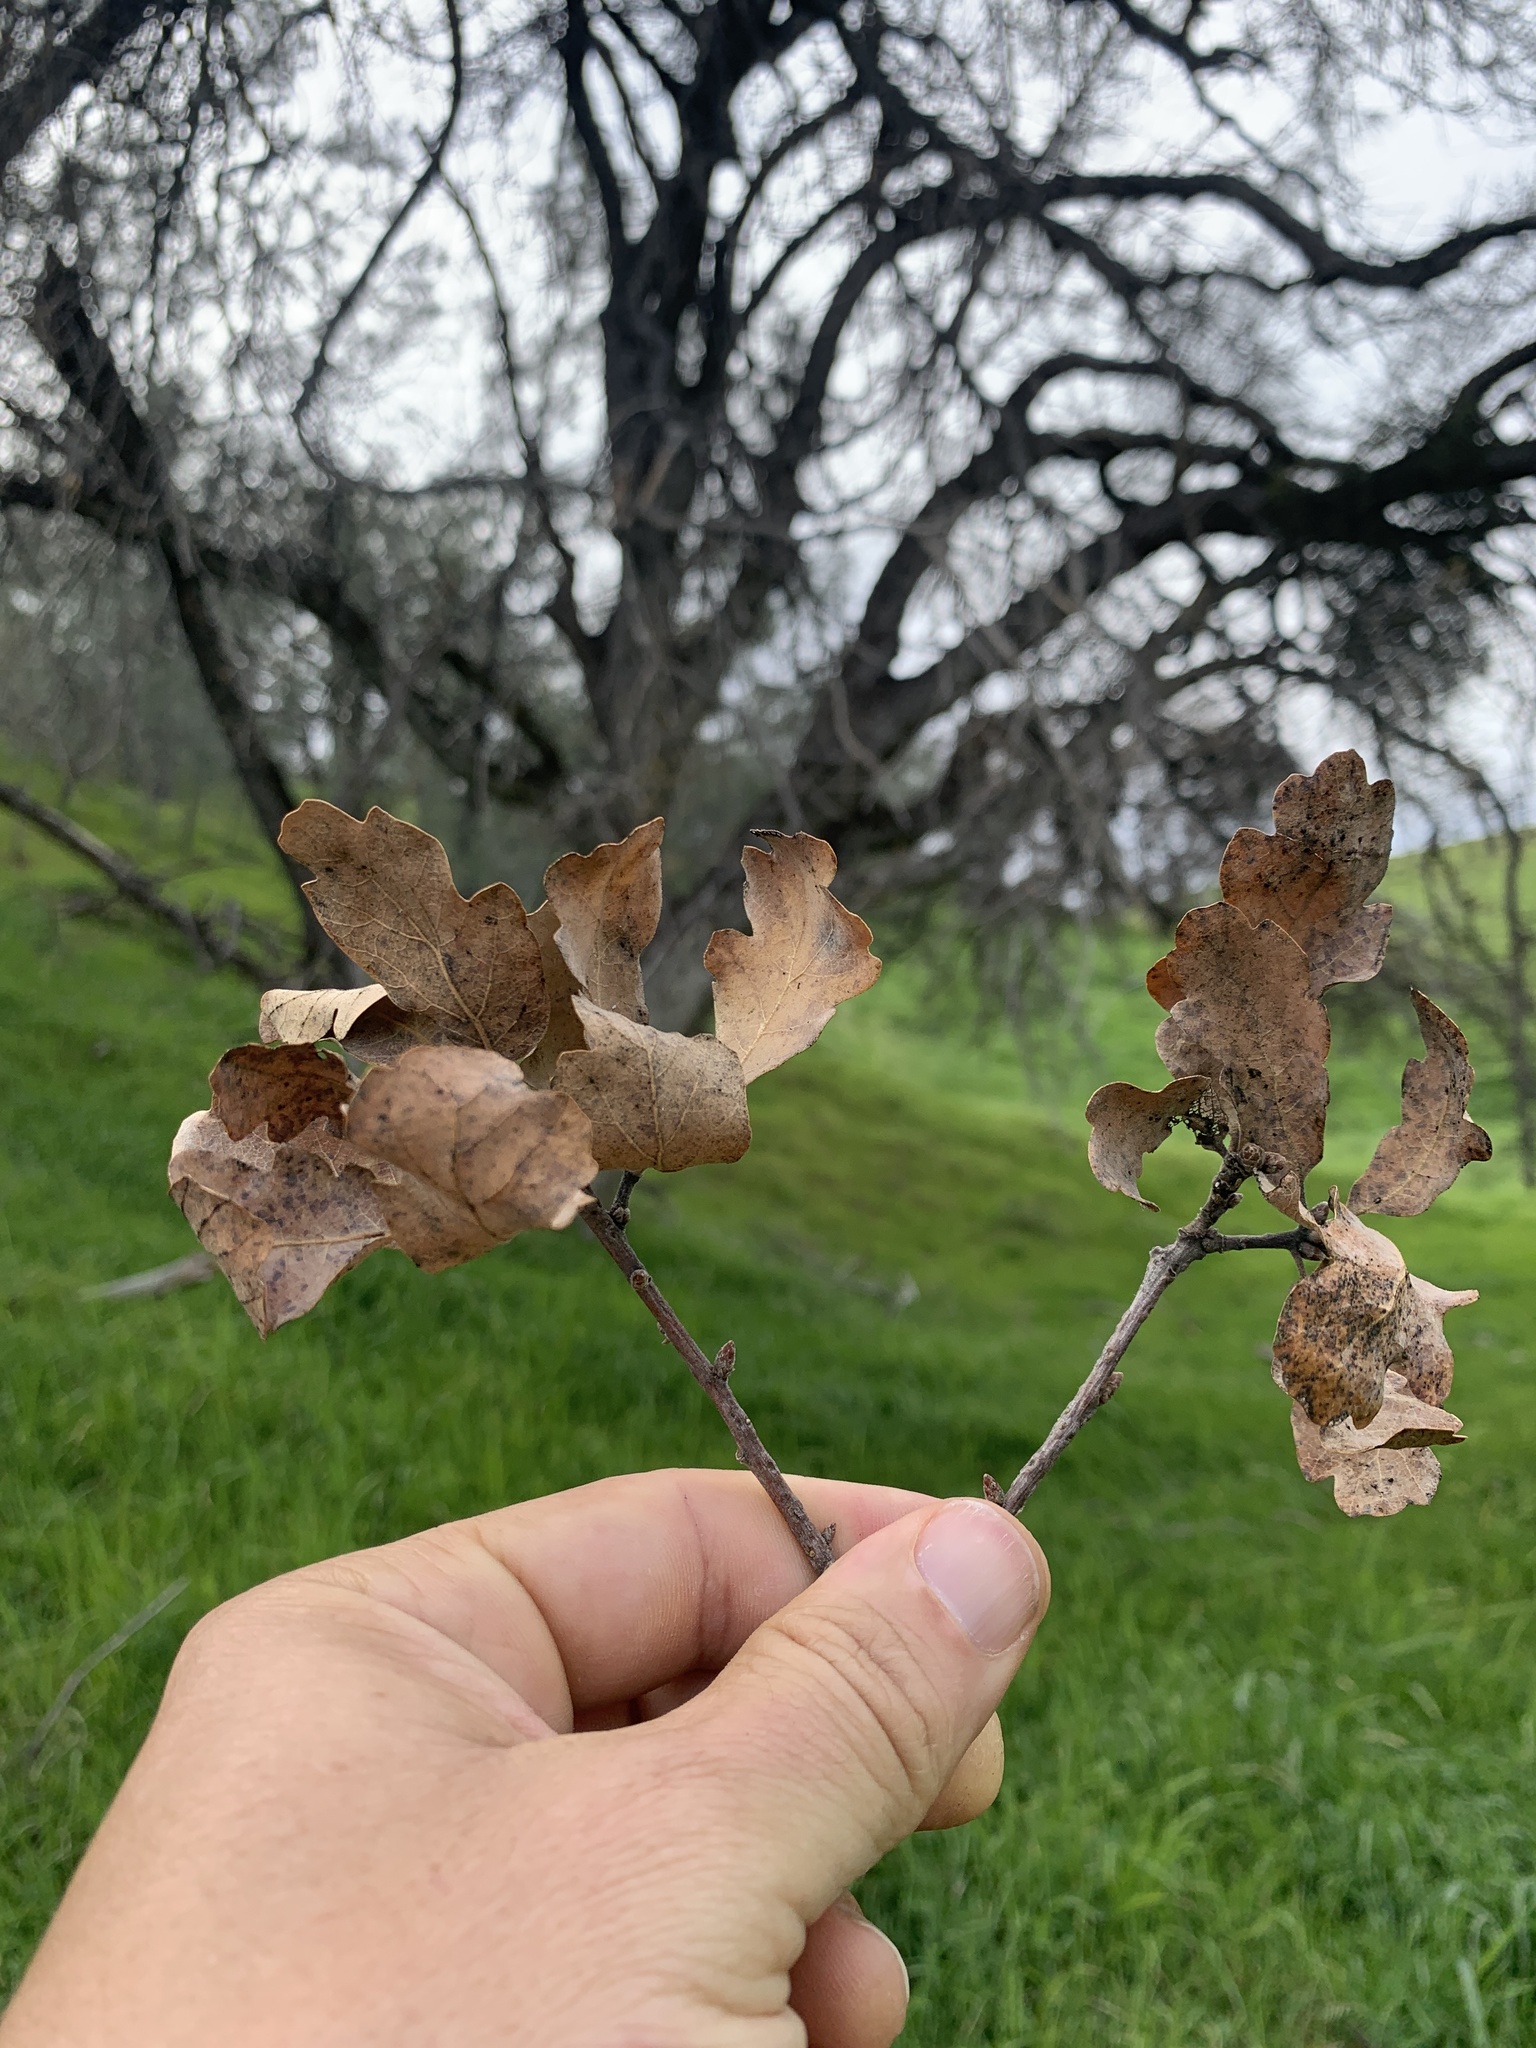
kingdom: Plantae
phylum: Tracheophyta
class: Magnoliopsida
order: Fagales
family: Fagaceae
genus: Quercus
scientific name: Quercus douglasii
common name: Blue oak
